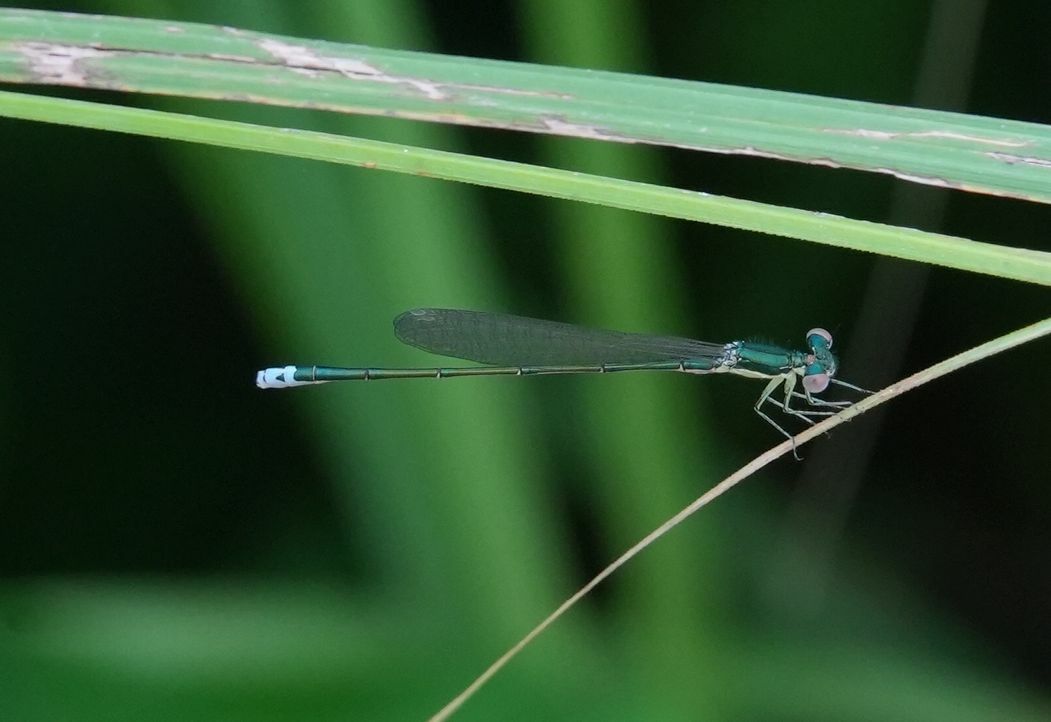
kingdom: Animalia
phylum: Arthropoda
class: Insecta
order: Odonata
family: Coenagrionidae
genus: Nehalennia
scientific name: Nehalennia irene
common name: Sedge sprite
